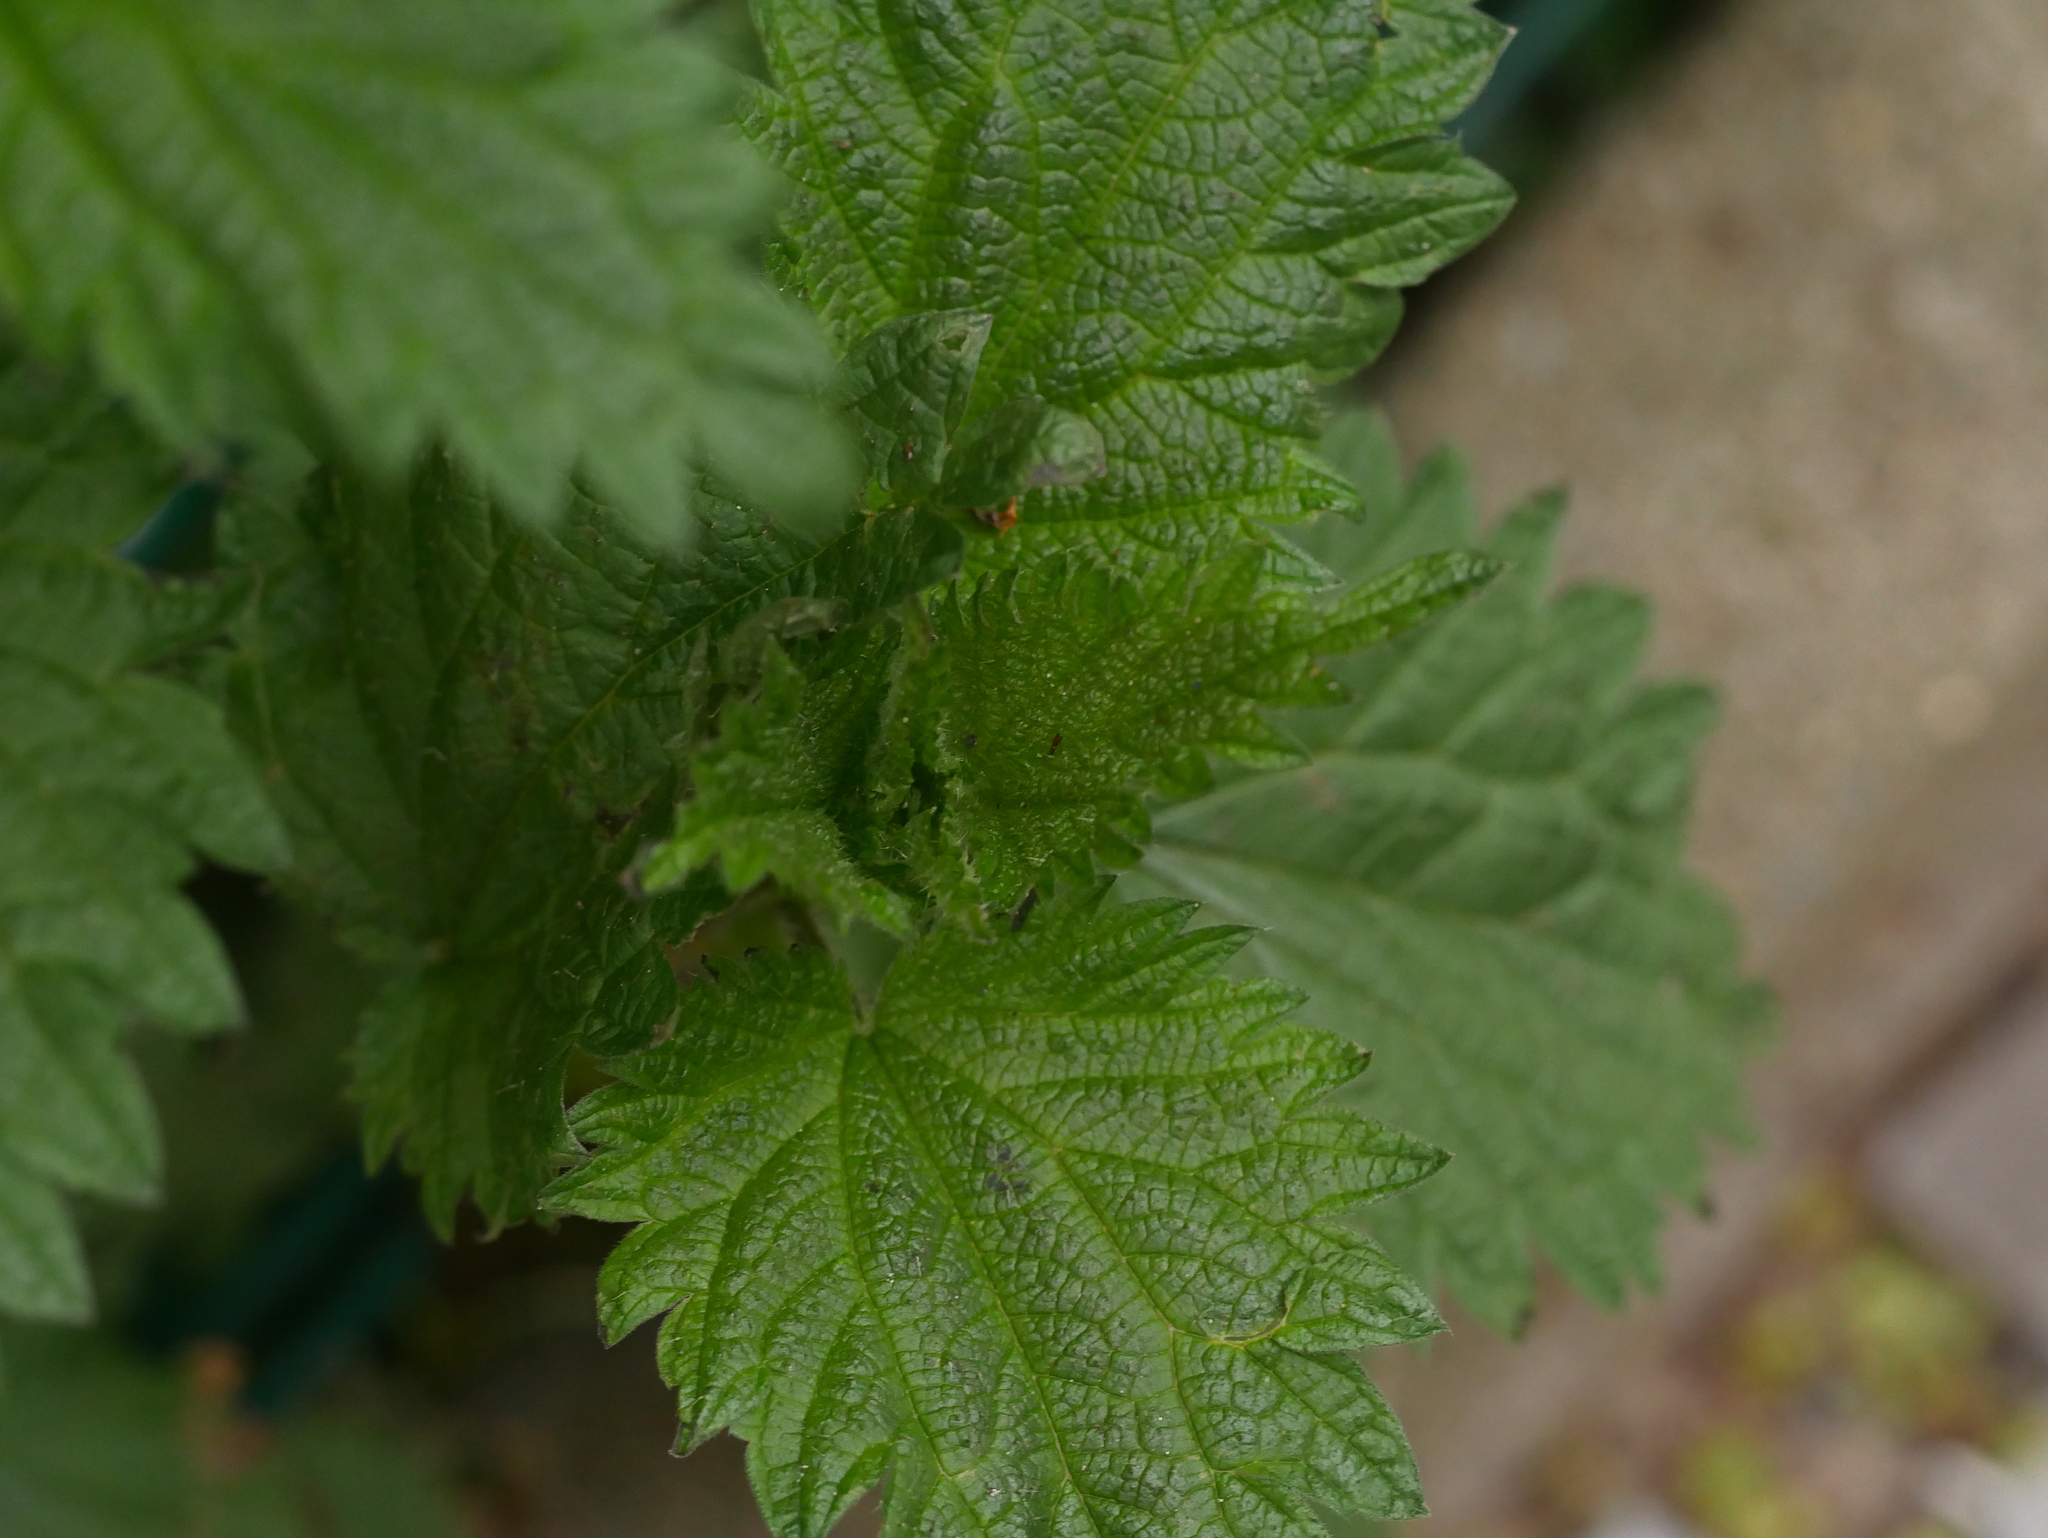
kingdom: Plantae
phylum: Tracheophyta
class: Magnoliopsida
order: Rosales
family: Urticaceae
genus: Urtica
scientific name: Urtica dioica
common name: Common nettle
